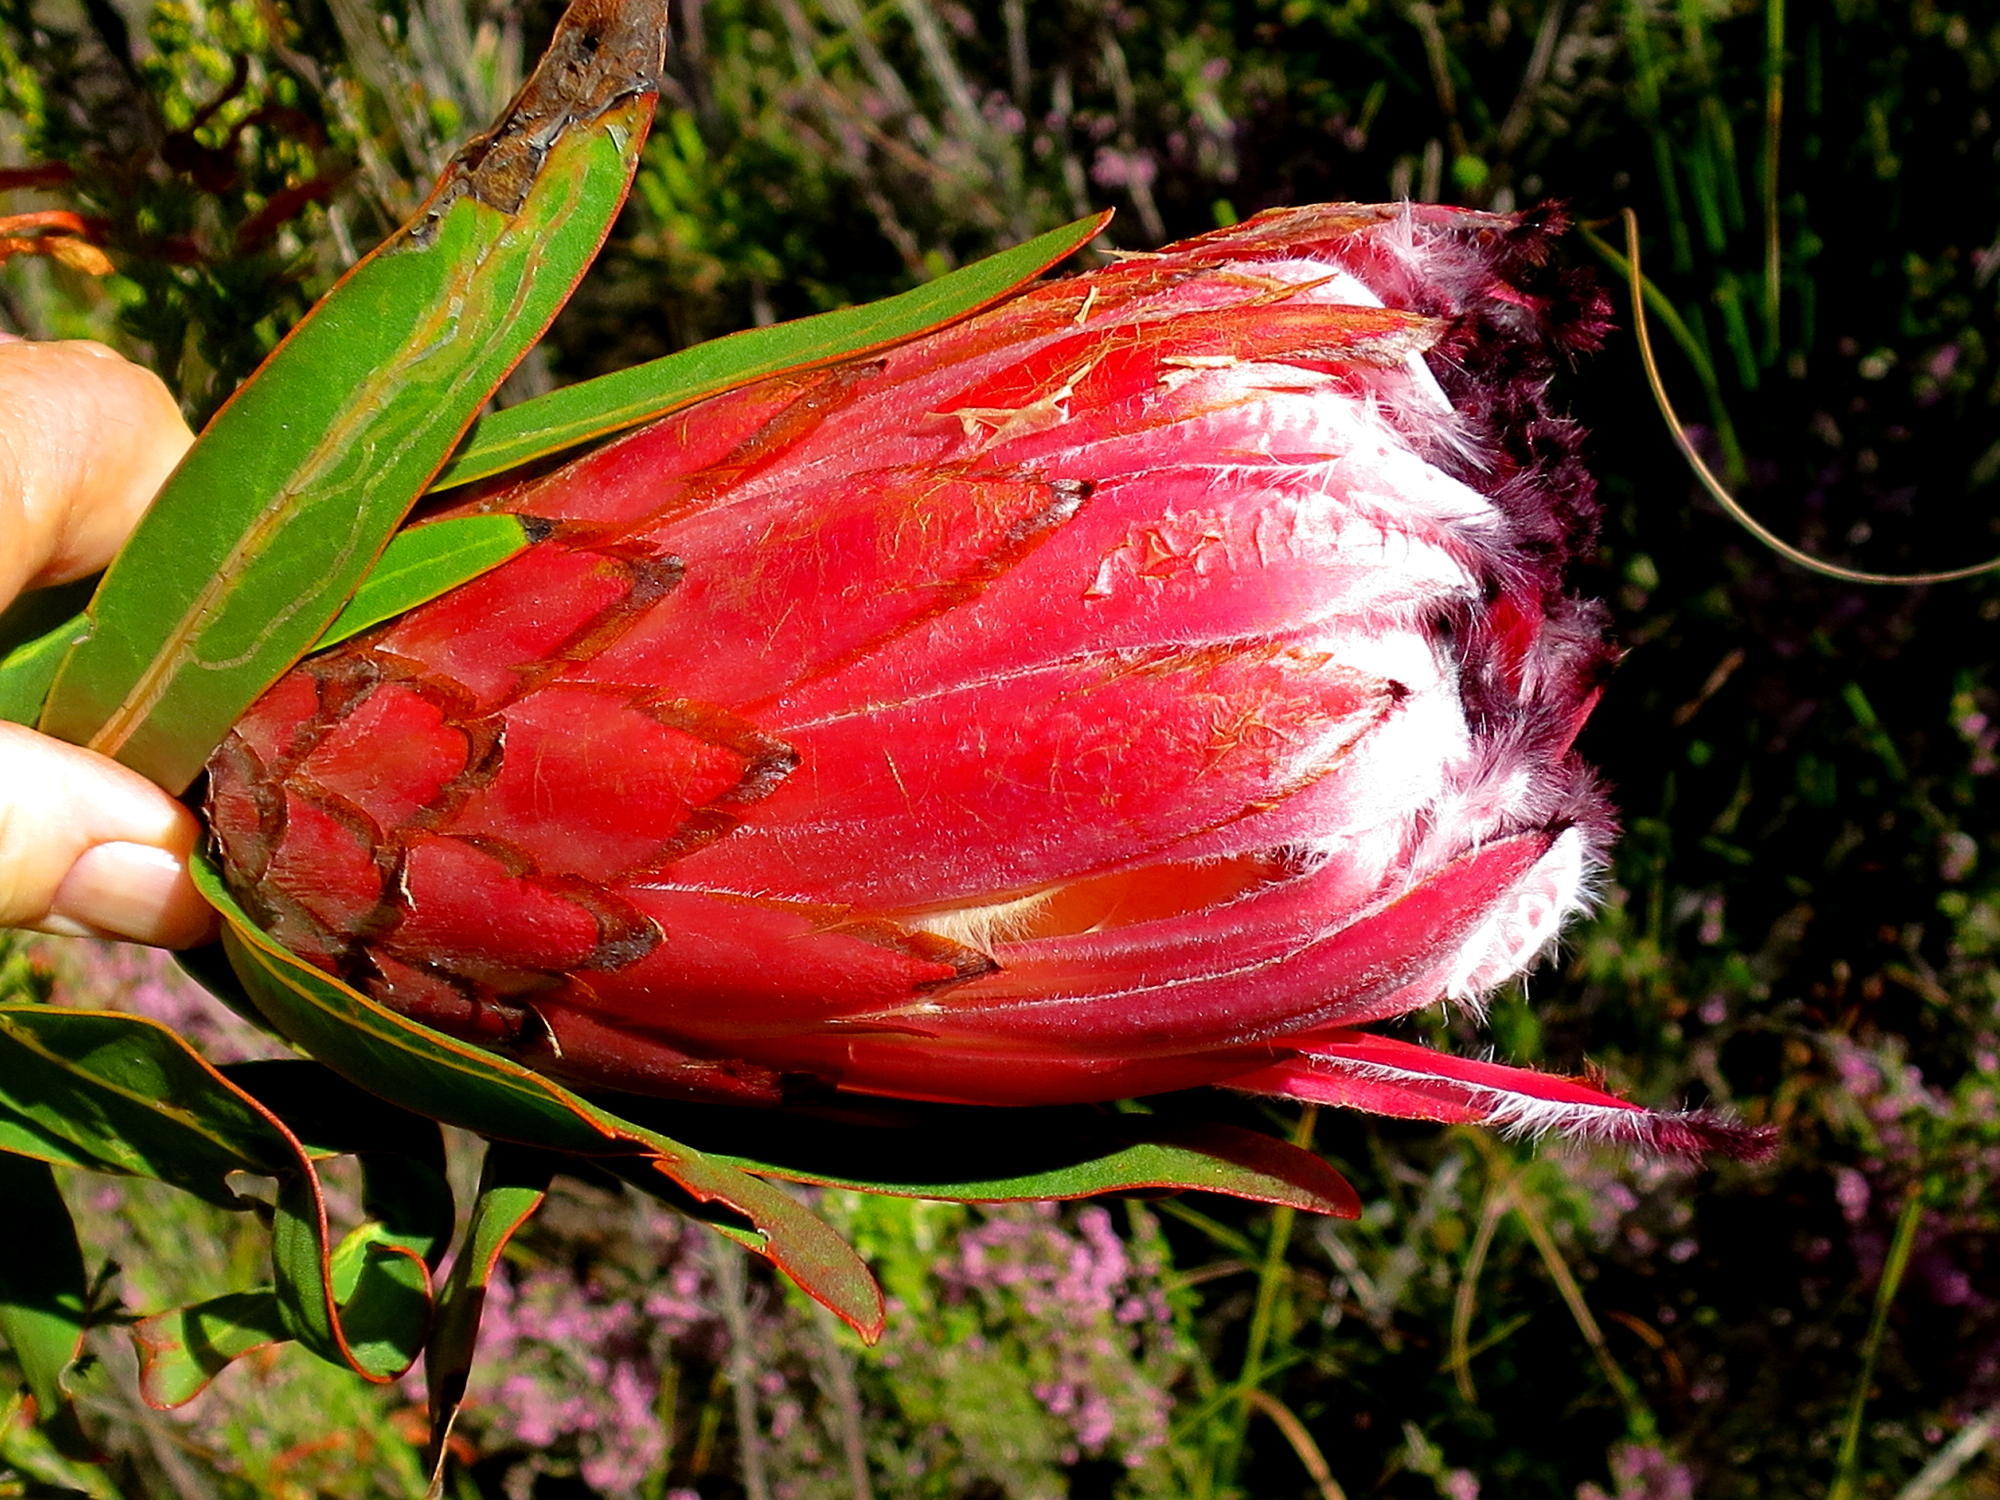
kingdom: Plantae
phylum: Tracheophyta
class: Magnoliopsida
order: Proteales
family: Proteaceae
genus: Protea
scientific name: Protea neriifolia
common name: Blue sugarbush
